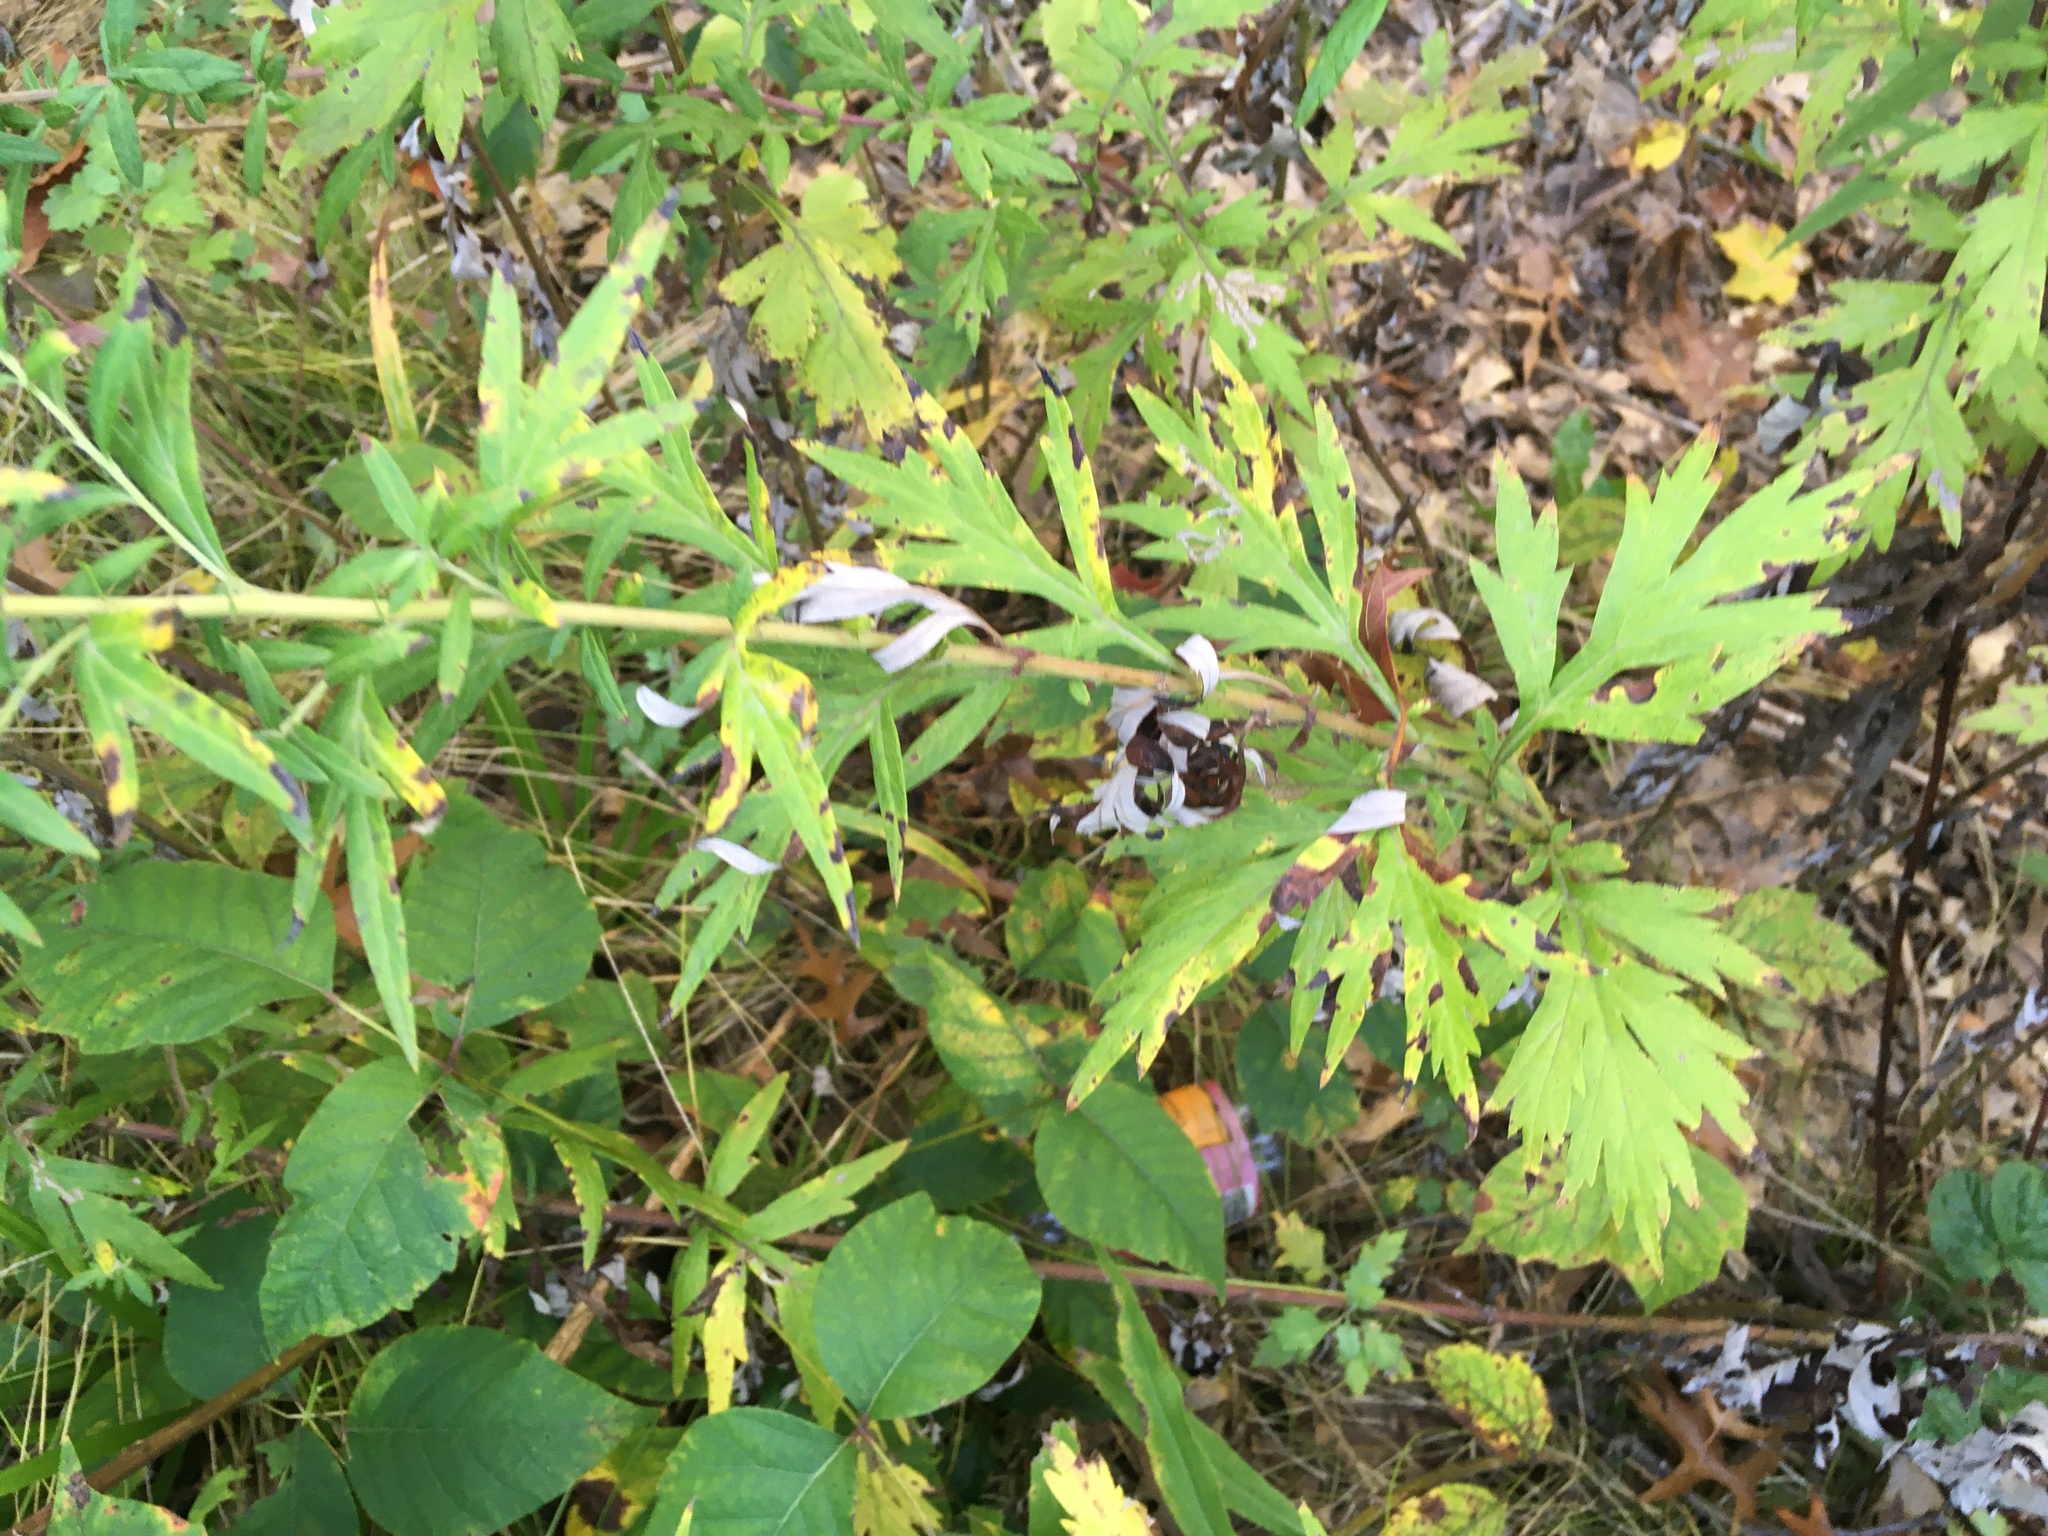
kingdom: Plantae
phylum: Tracheophyta
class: Magnoliopsida
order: Asterales
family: Asteraceae
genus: Artemisia
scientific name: Artemisia vulgaris
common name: Mugwort
